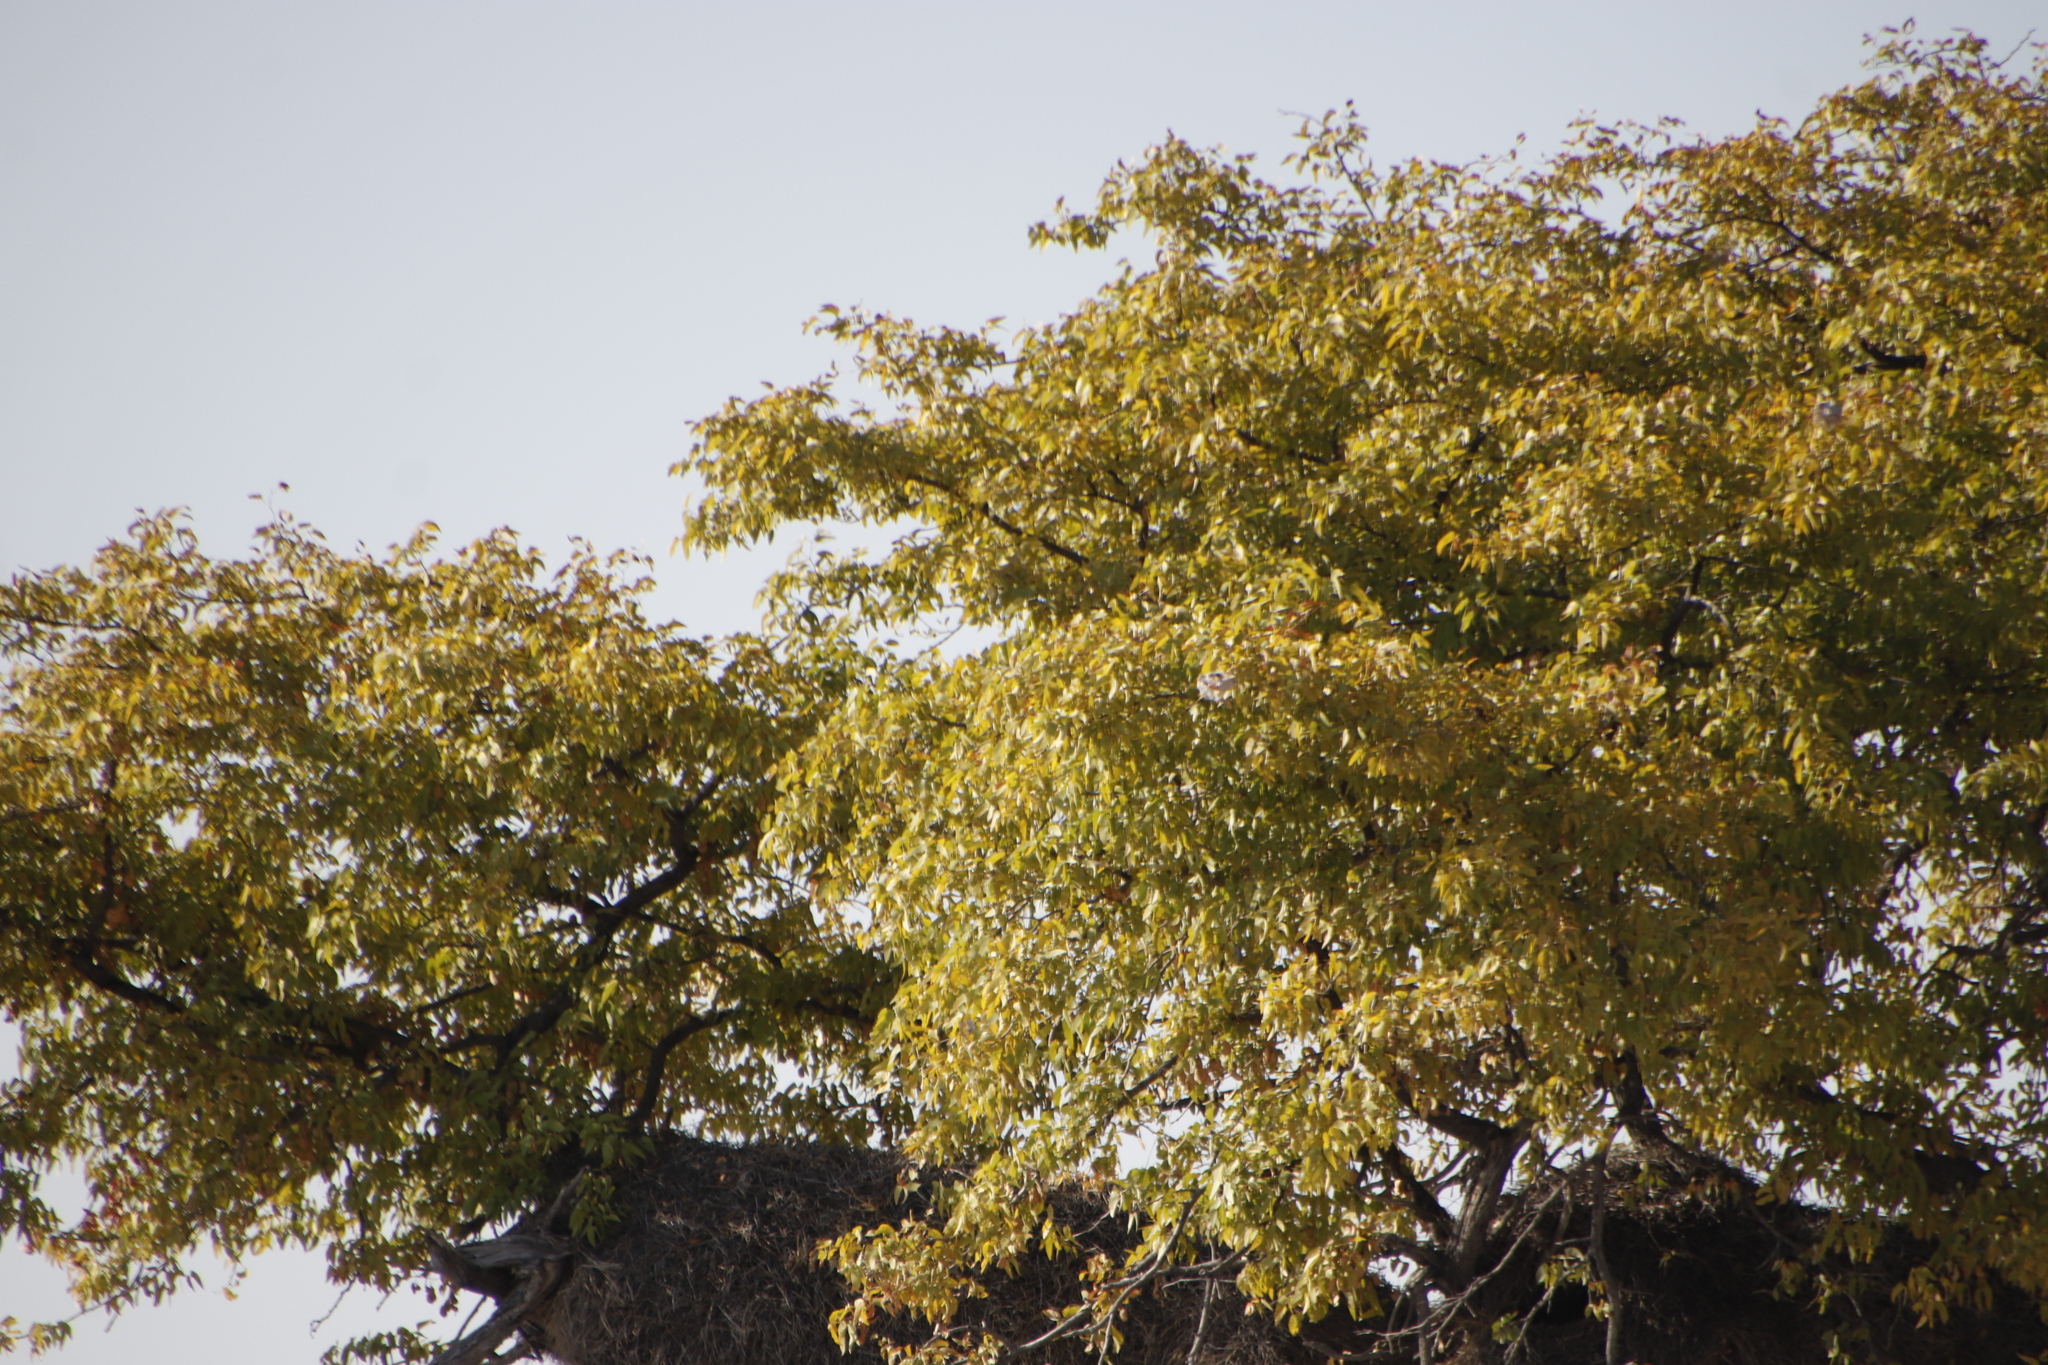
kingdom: Plantae
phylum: Tracheophyta
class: Magnoliopsida
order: Fabales
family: Fabaceae
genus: Colophospermum
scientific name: Colophospermum mopane
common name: Mopane
